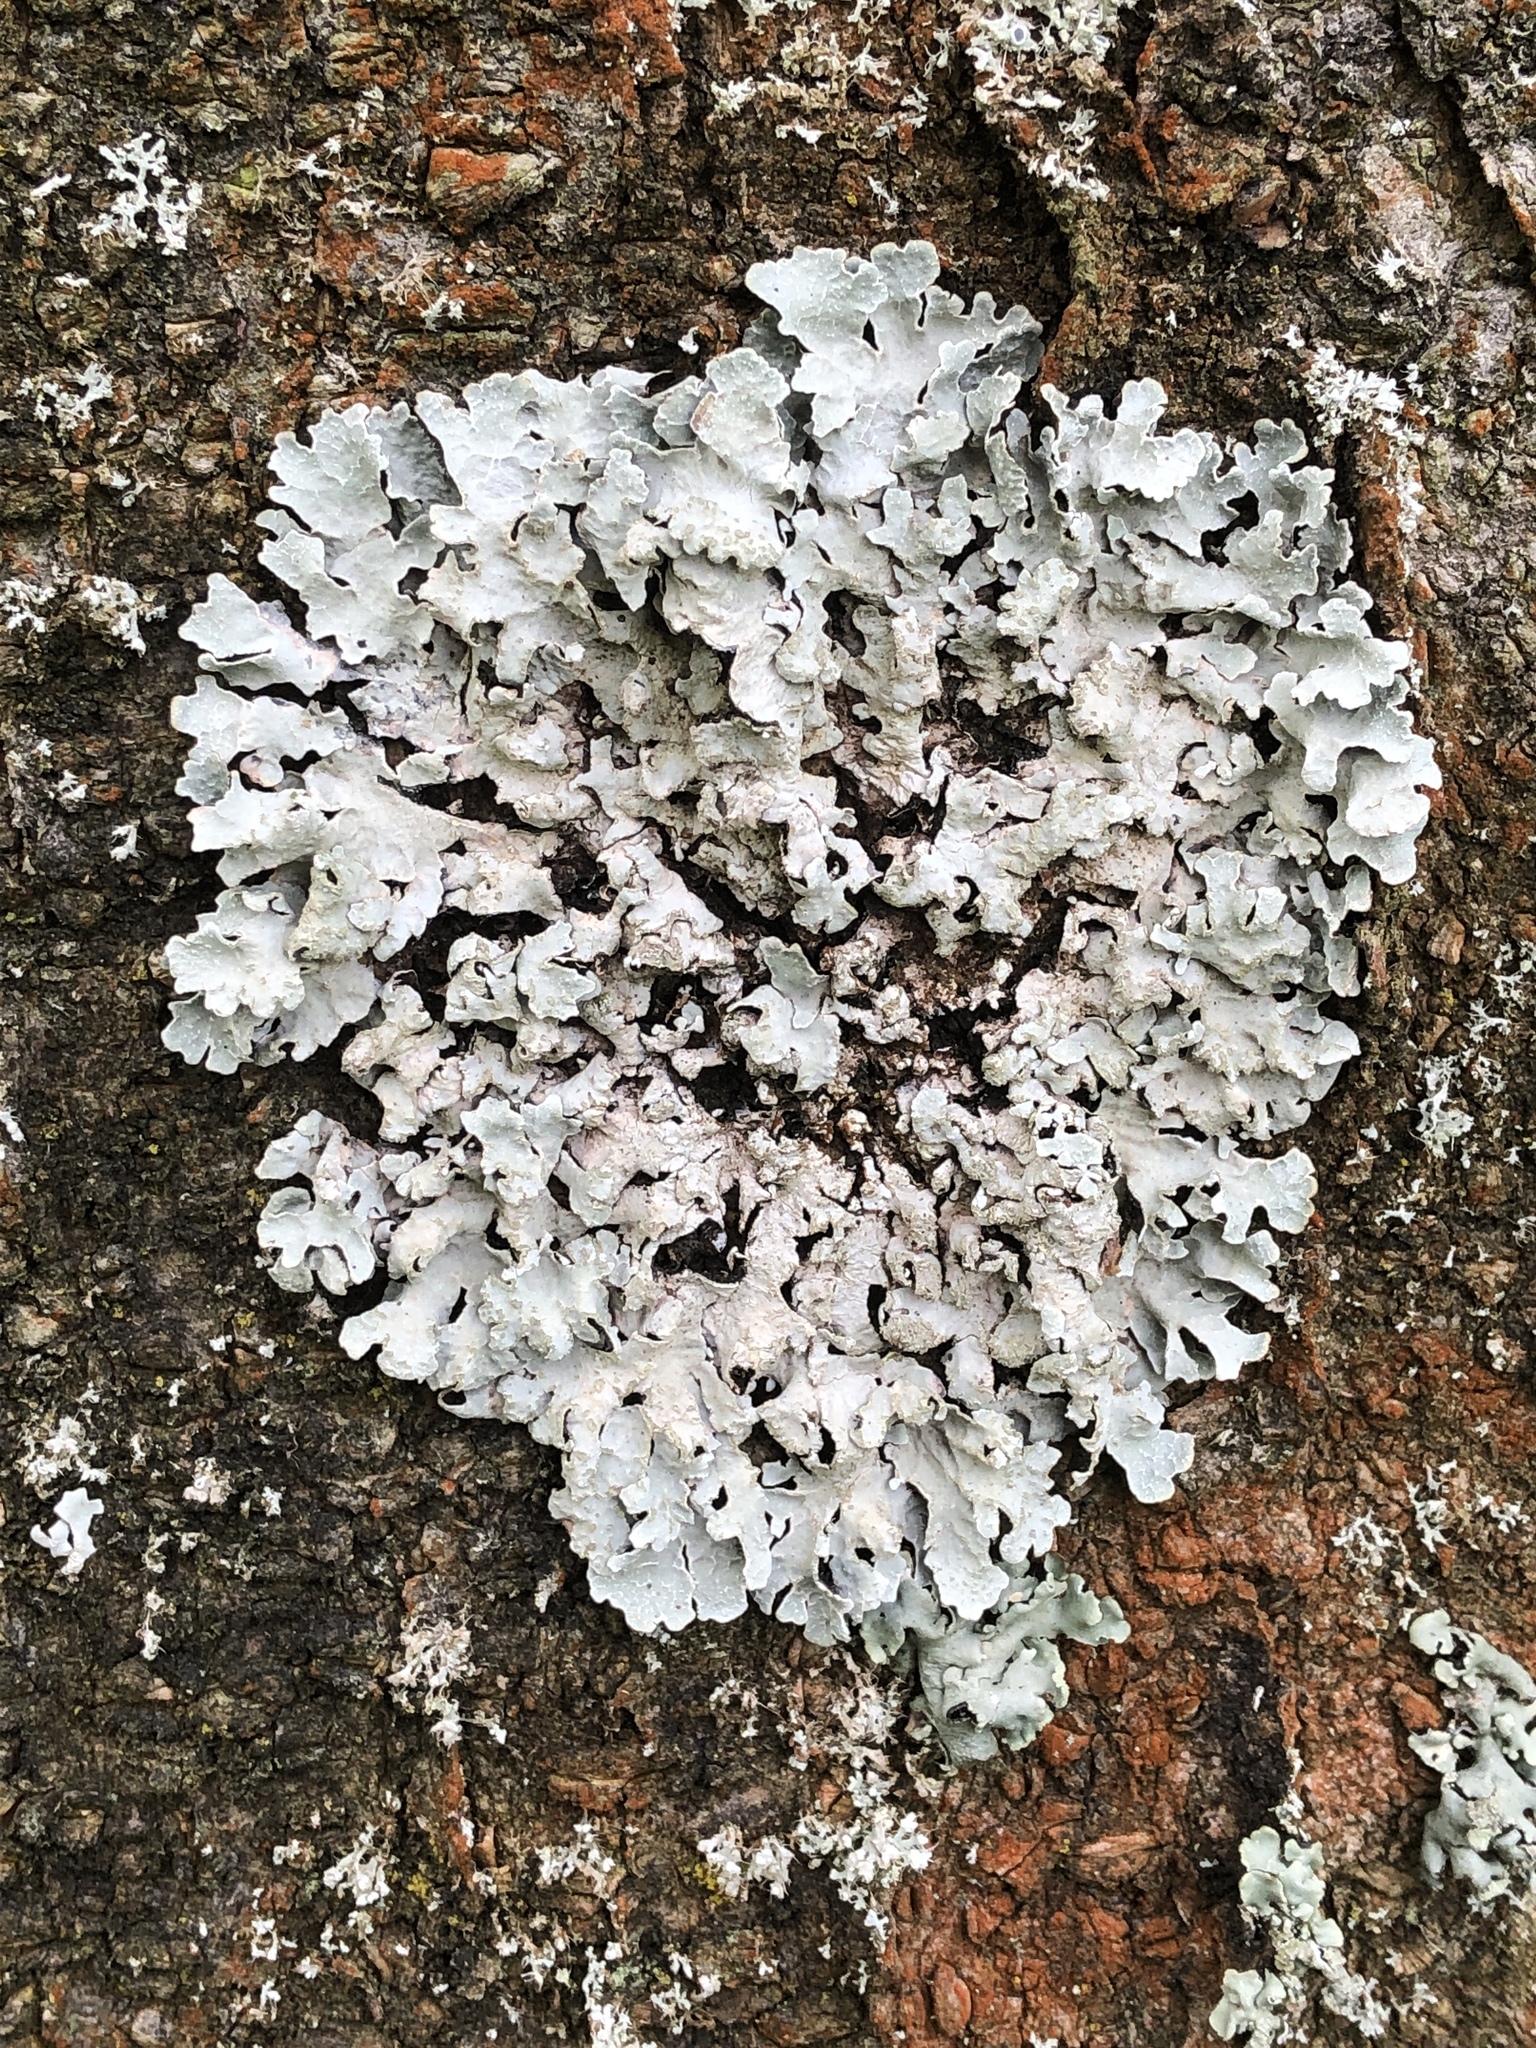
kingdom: Fungi
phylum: Ascomycota
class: Lecanoromycetes
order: Lecanorales
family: Parmeliaceae
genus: Parmelia
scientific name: Parmelia sulcata
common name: Netted shield lichen
